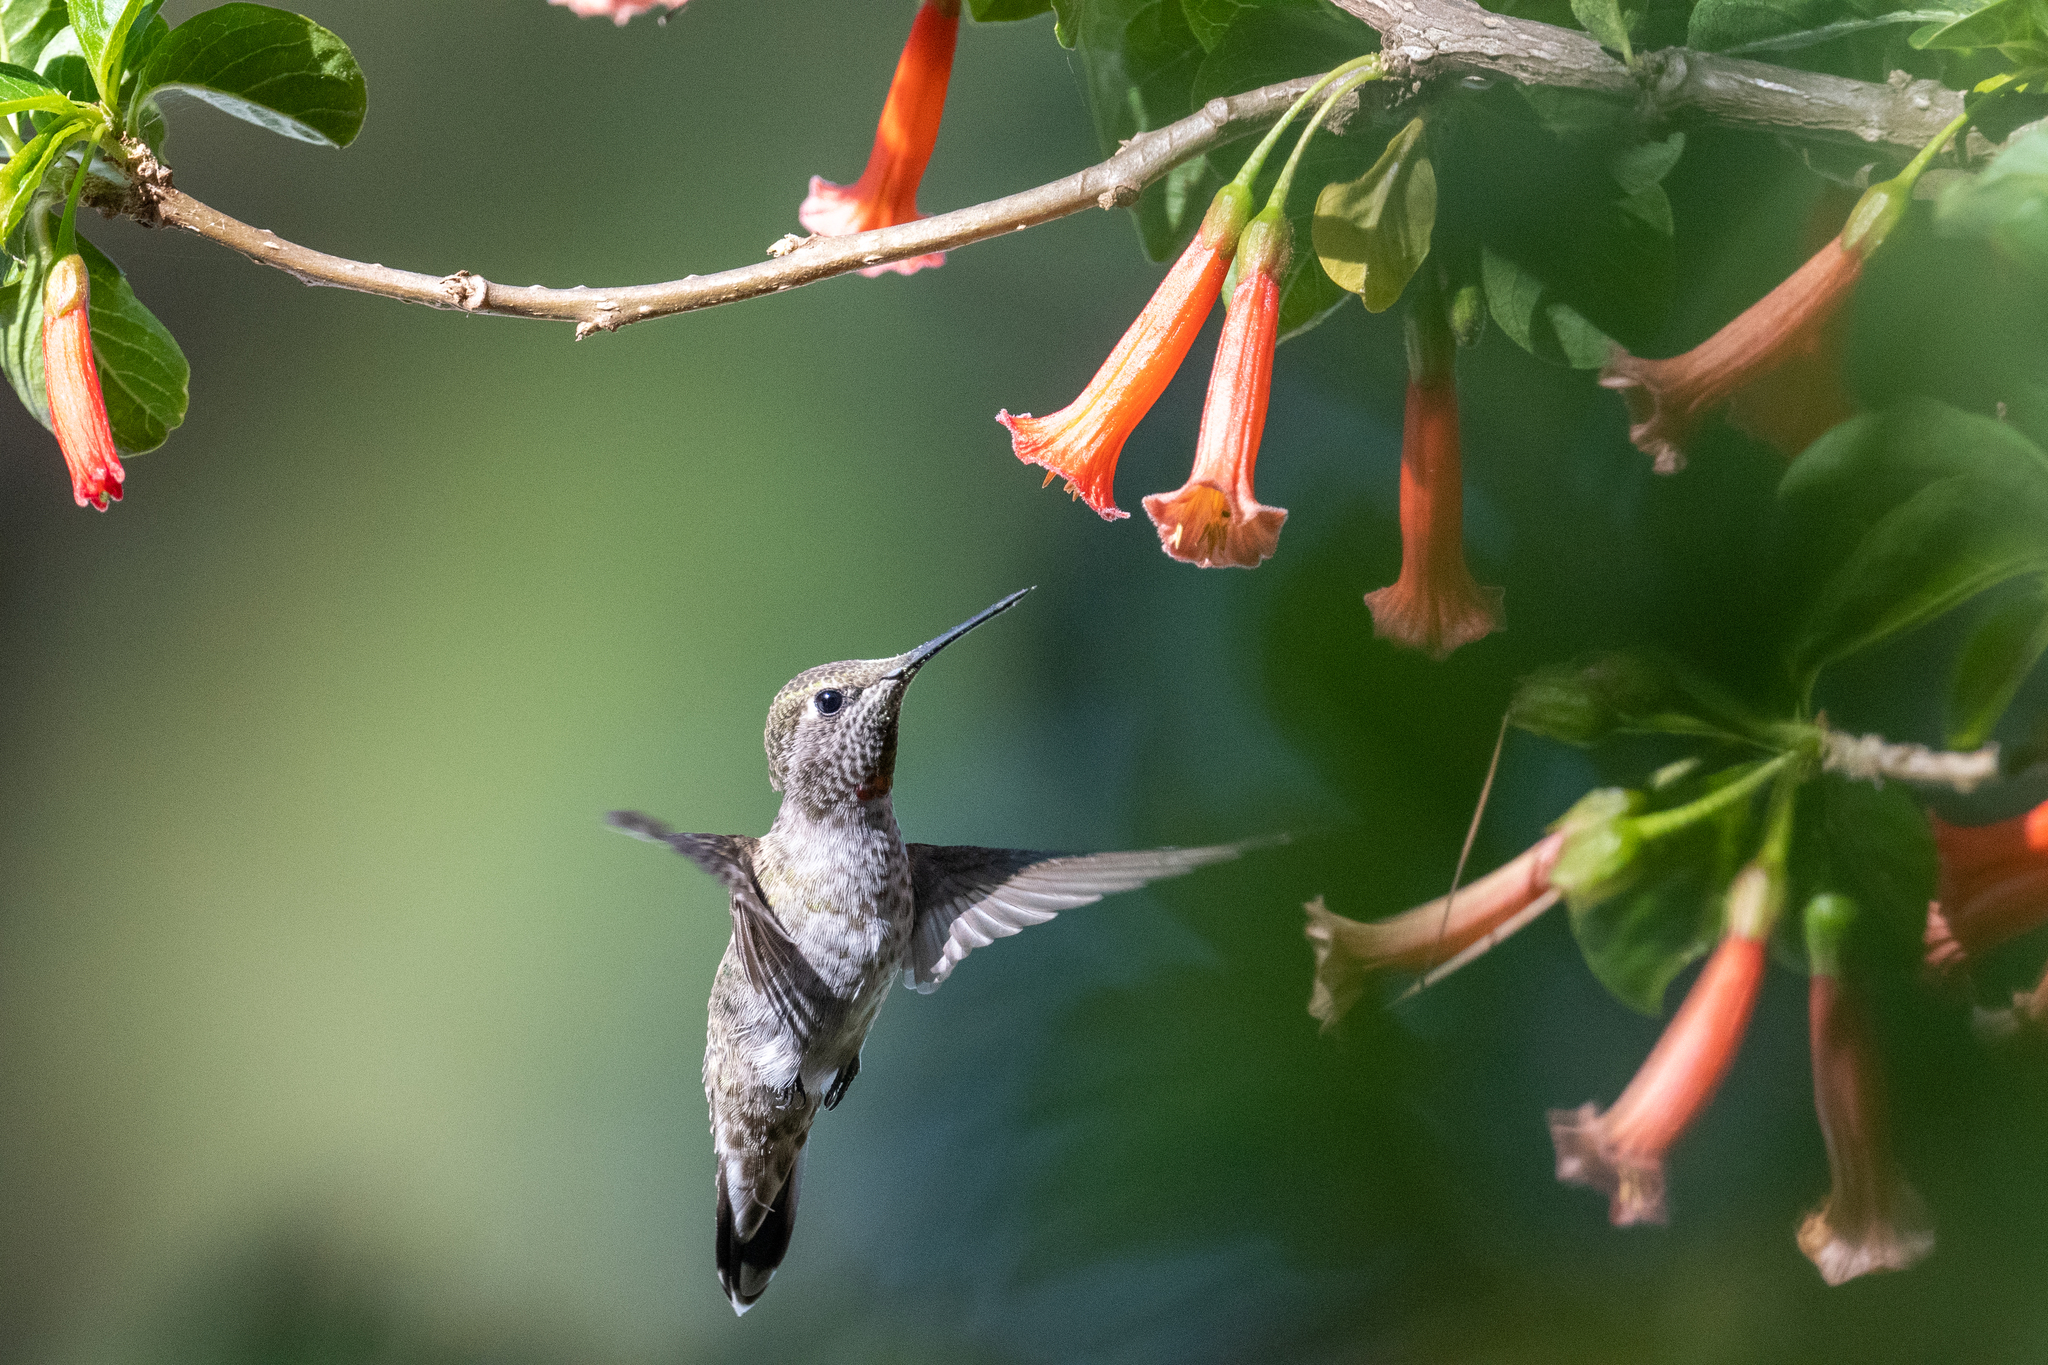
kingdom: Animalia
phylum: Chordata
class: Aves
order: Apodiformes
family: Trochilidae
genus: Calypte
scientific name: Calypte anna
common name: Anna's hummingbird
